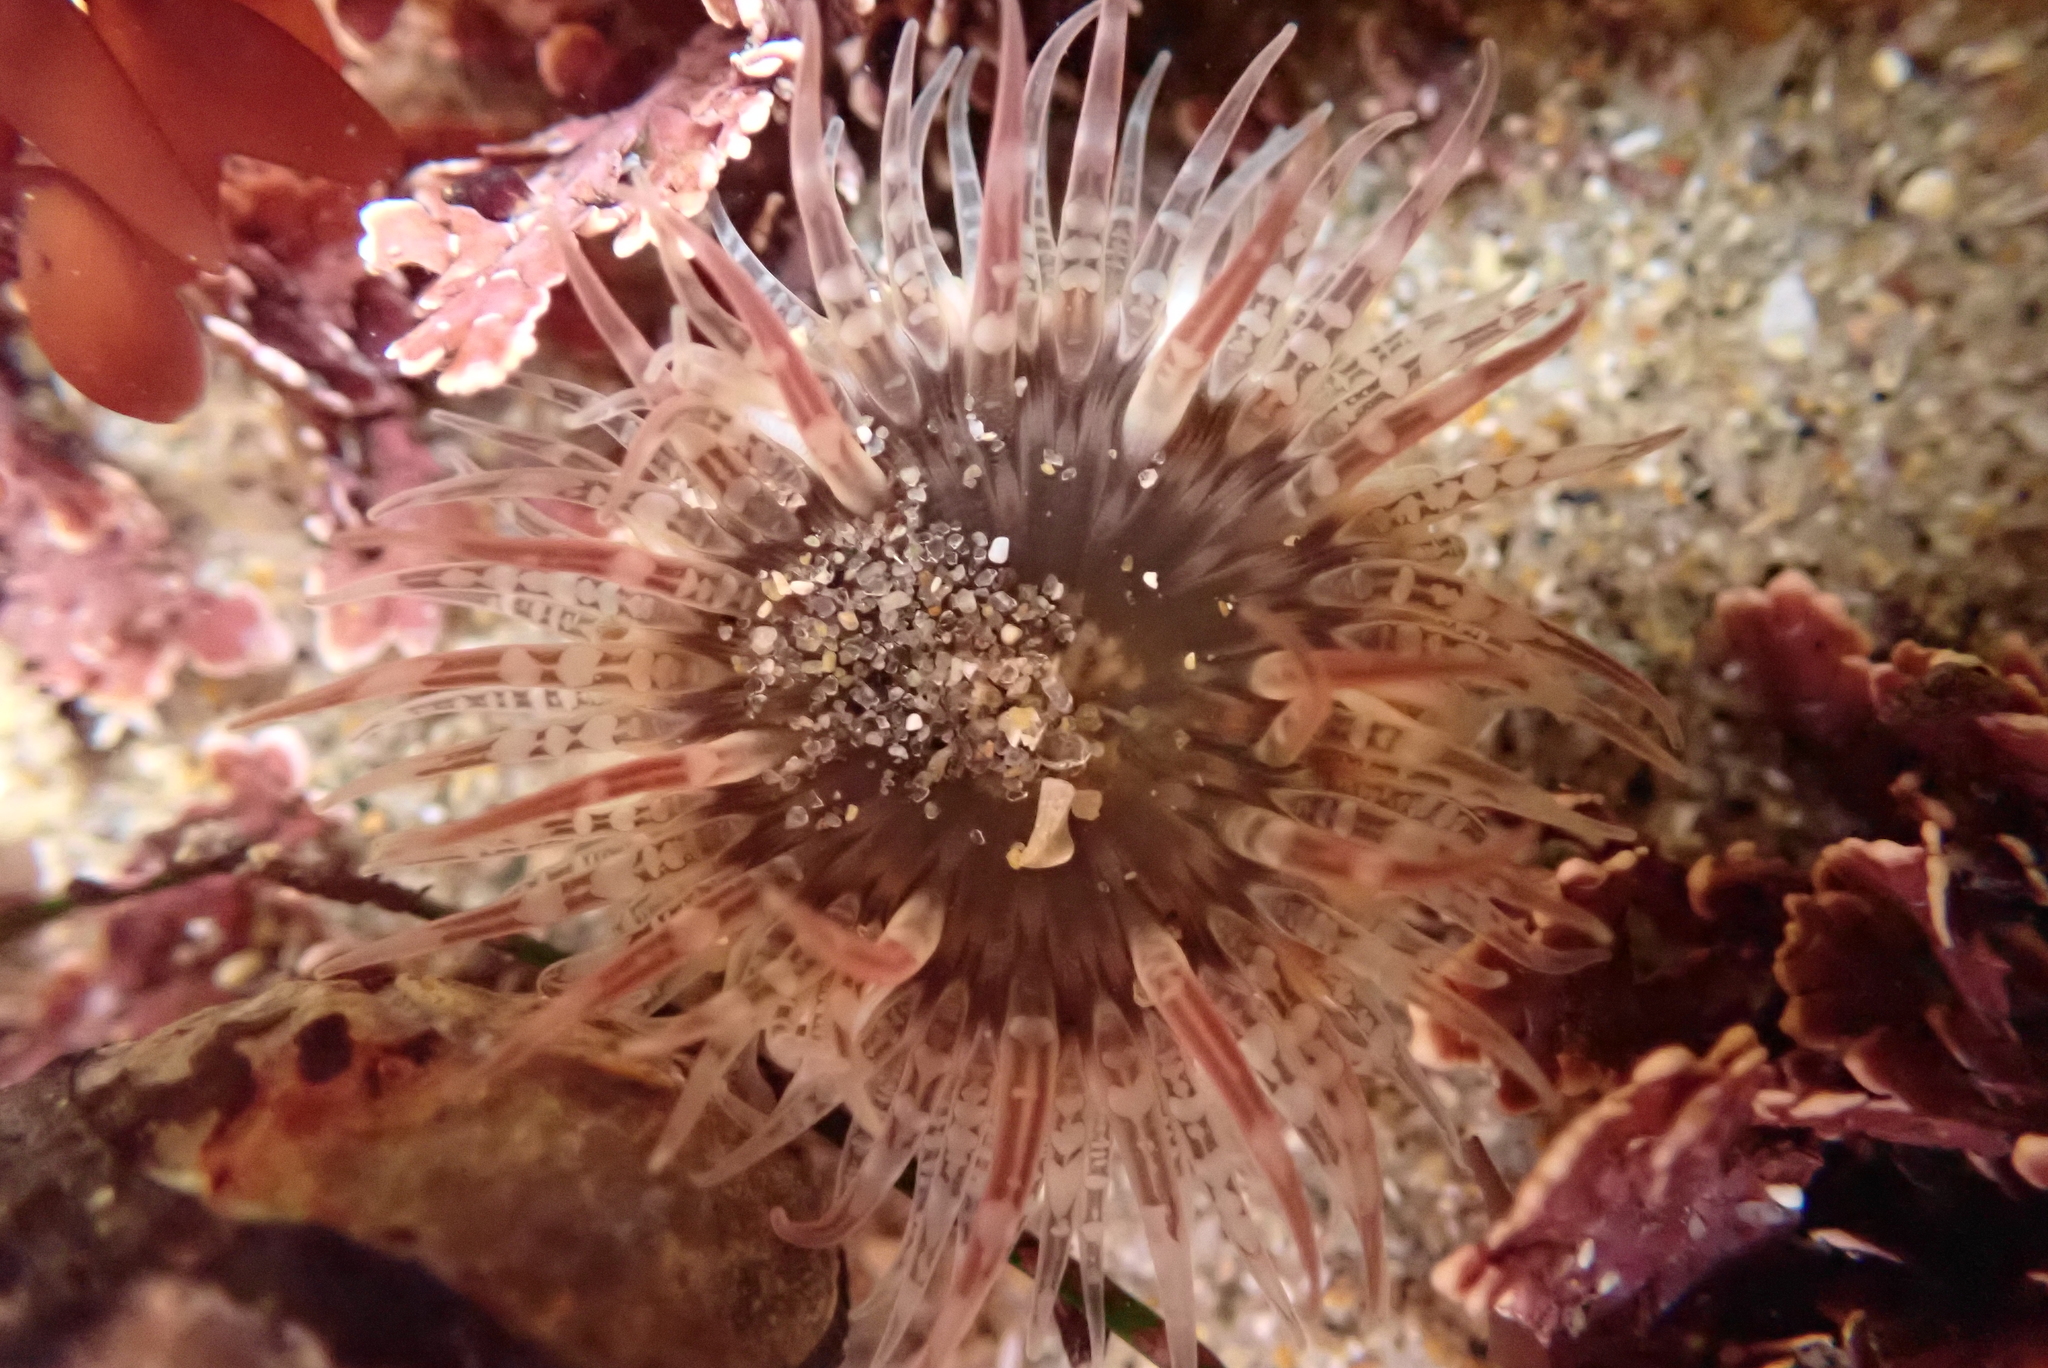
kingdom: Animalia
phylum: Cnidaria
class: Anthozoa
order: Actiniaria
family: Actiniidae
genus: Anthopleura
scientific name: Anthopleura artemisia
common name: Buried sea anemone
